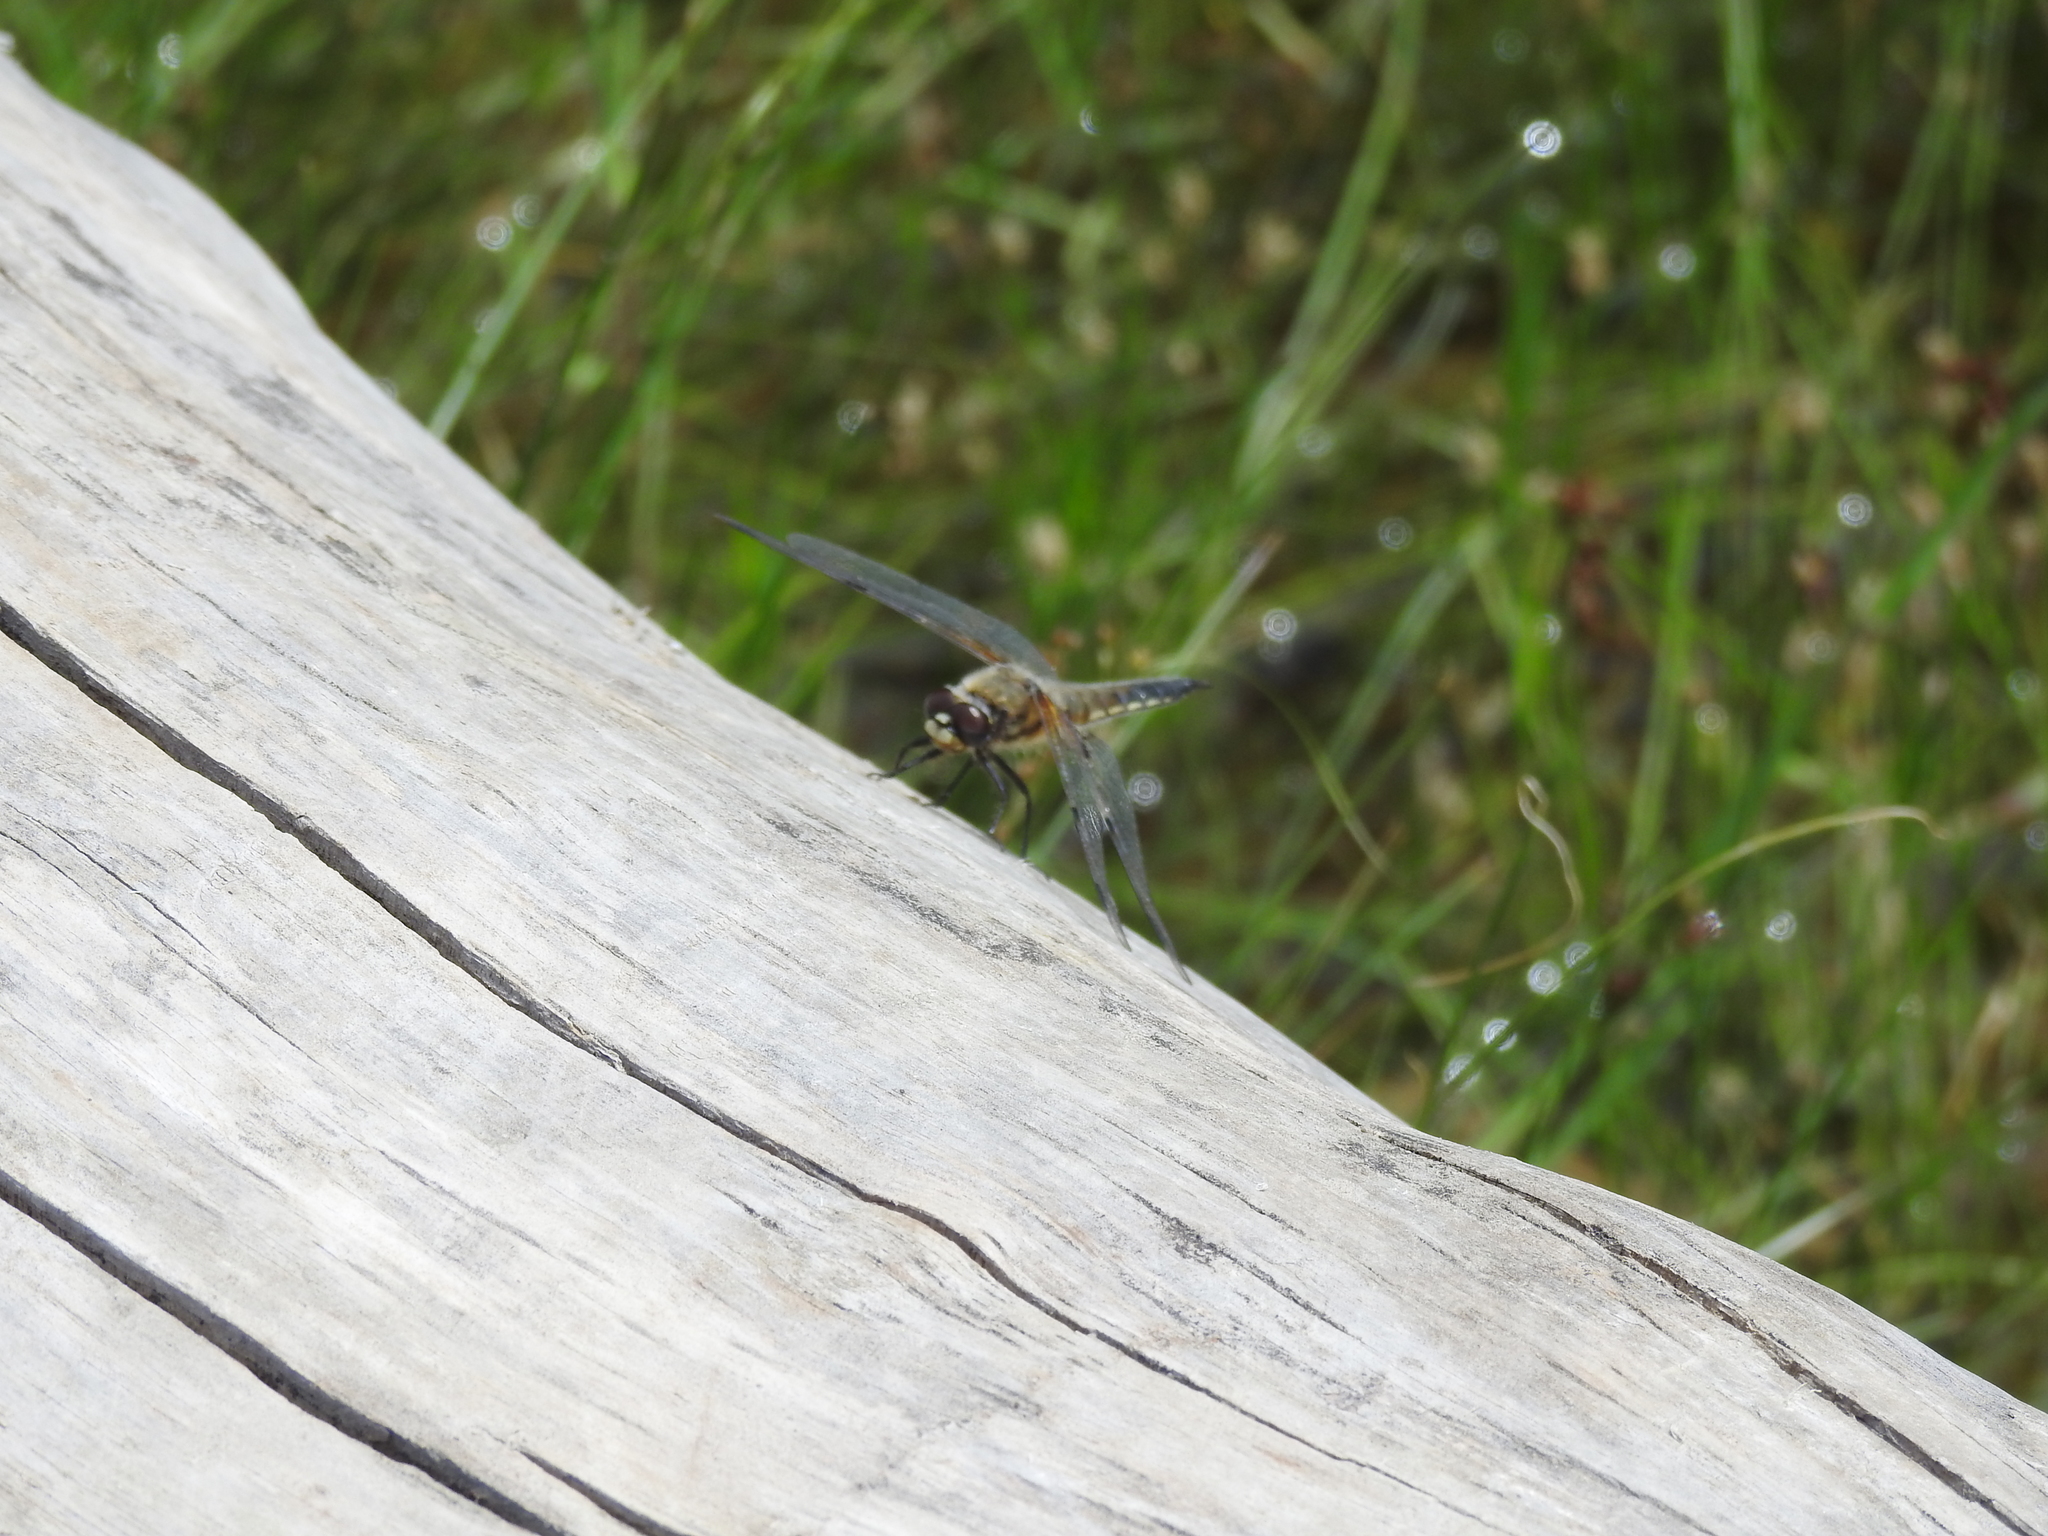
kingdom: Animalia
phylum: Arthropoda
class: Insecta
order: Odonata
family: Libellulidae
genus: Libellula
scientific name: Libellula quadrimaculata
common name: Four-spotted chaser
